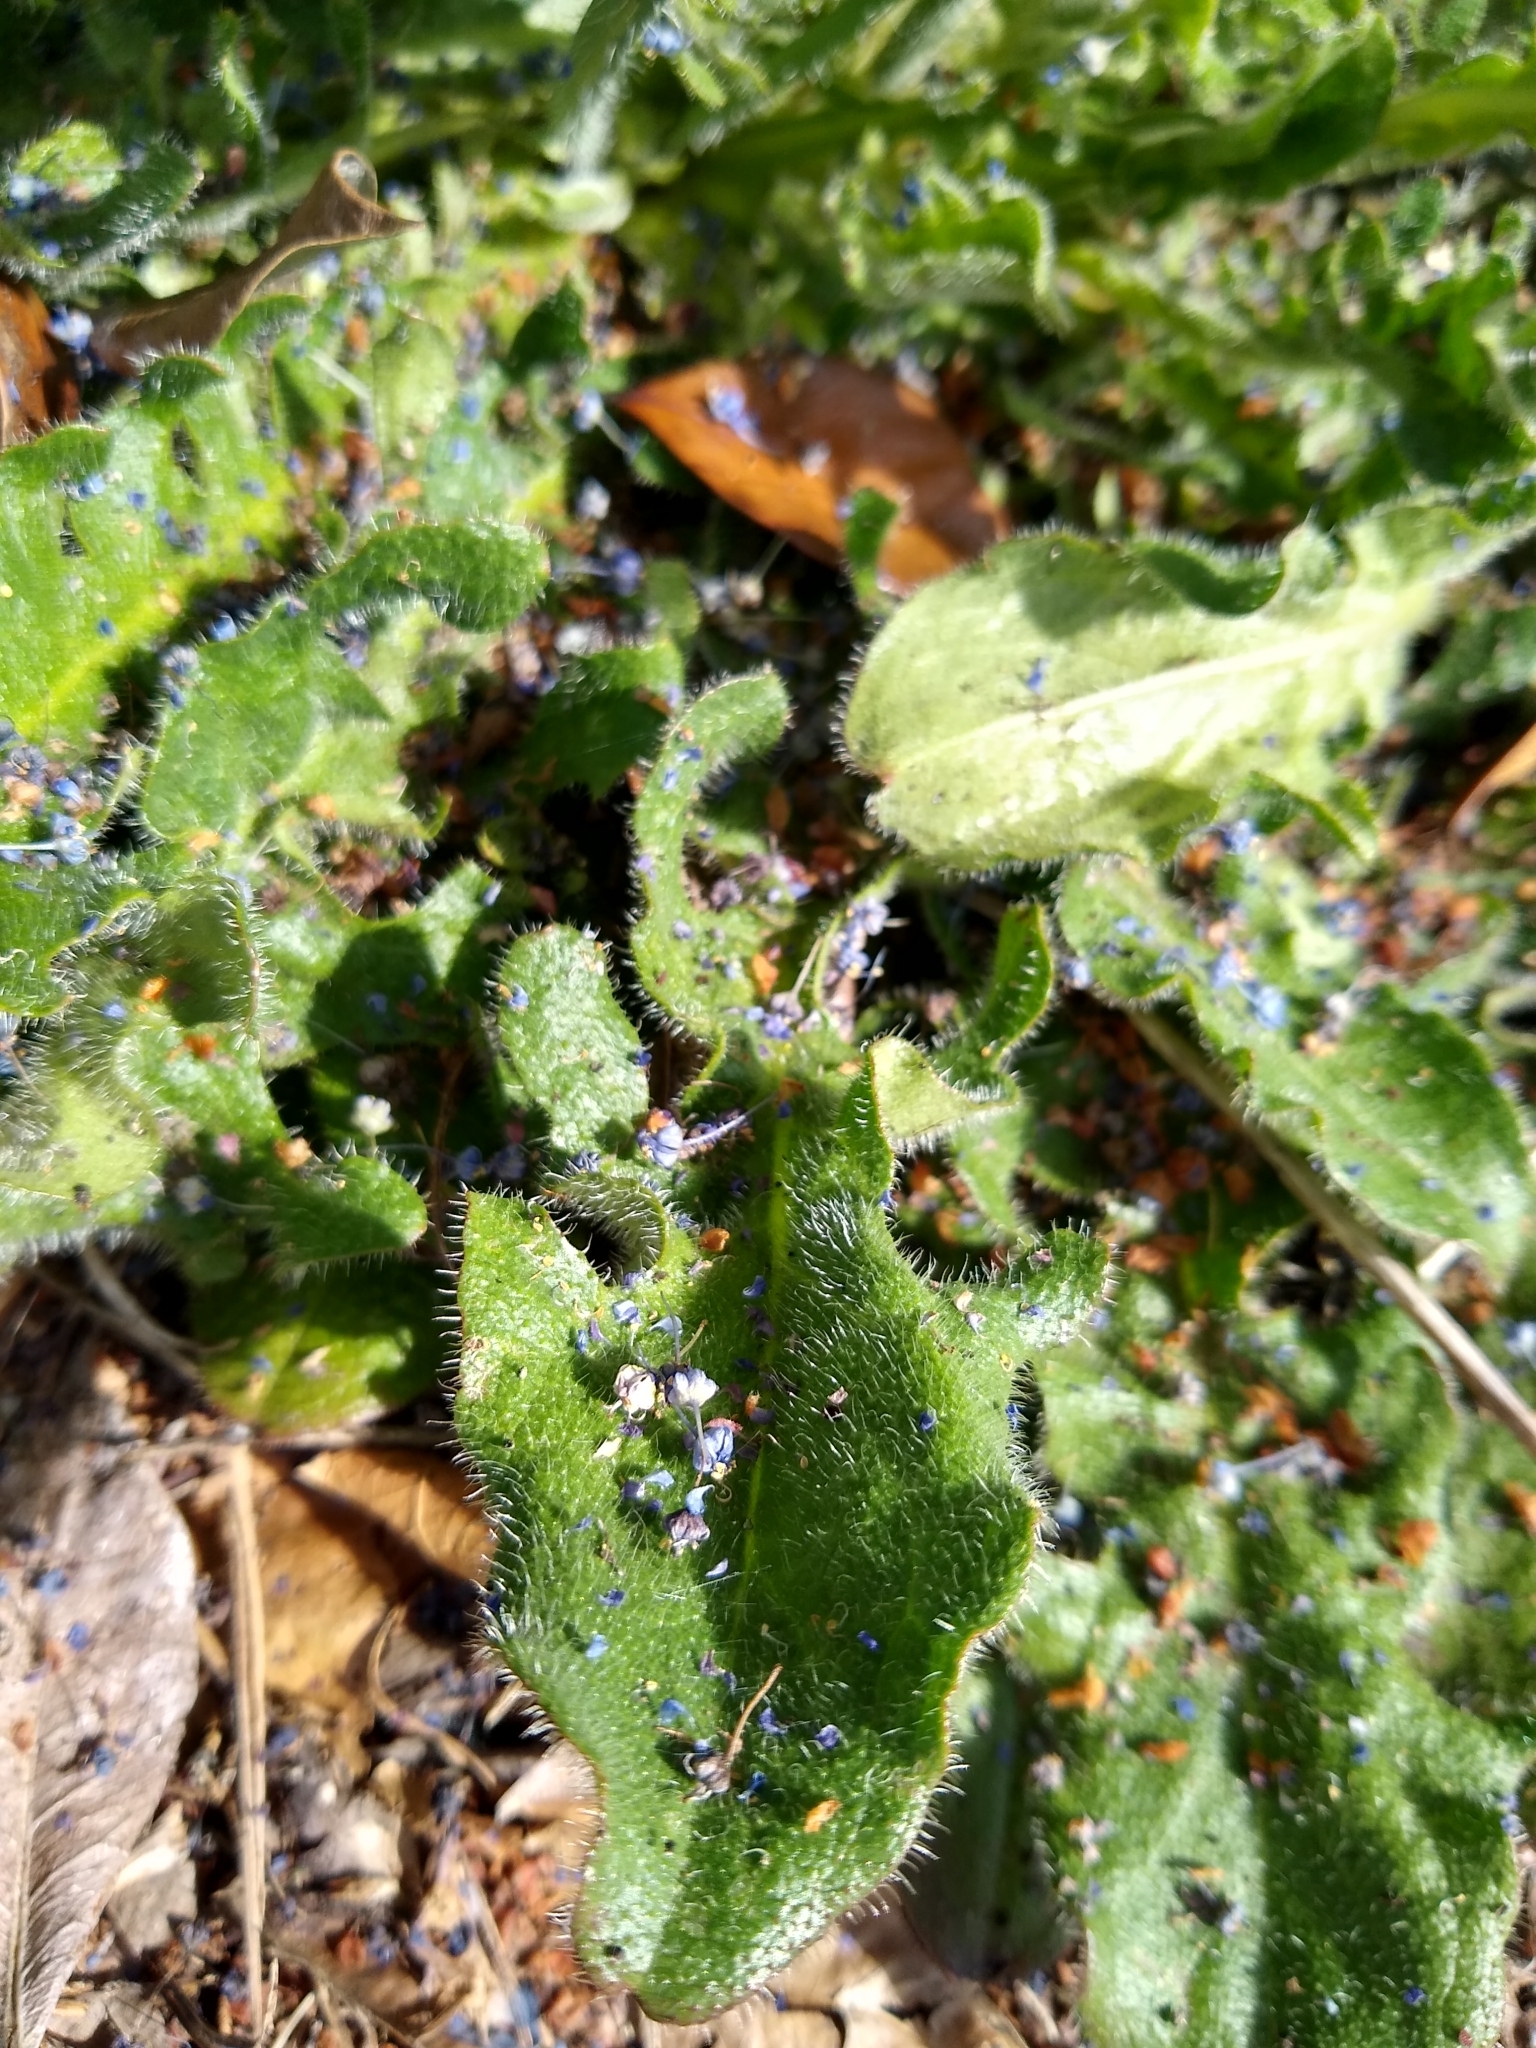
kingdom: Plantae
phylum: Tracheophyta
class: Magnoliopsida
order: Asterales
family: Asteraceae
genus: Hypochaeris
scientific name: Hypochaeris radicata
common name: Flatweed
